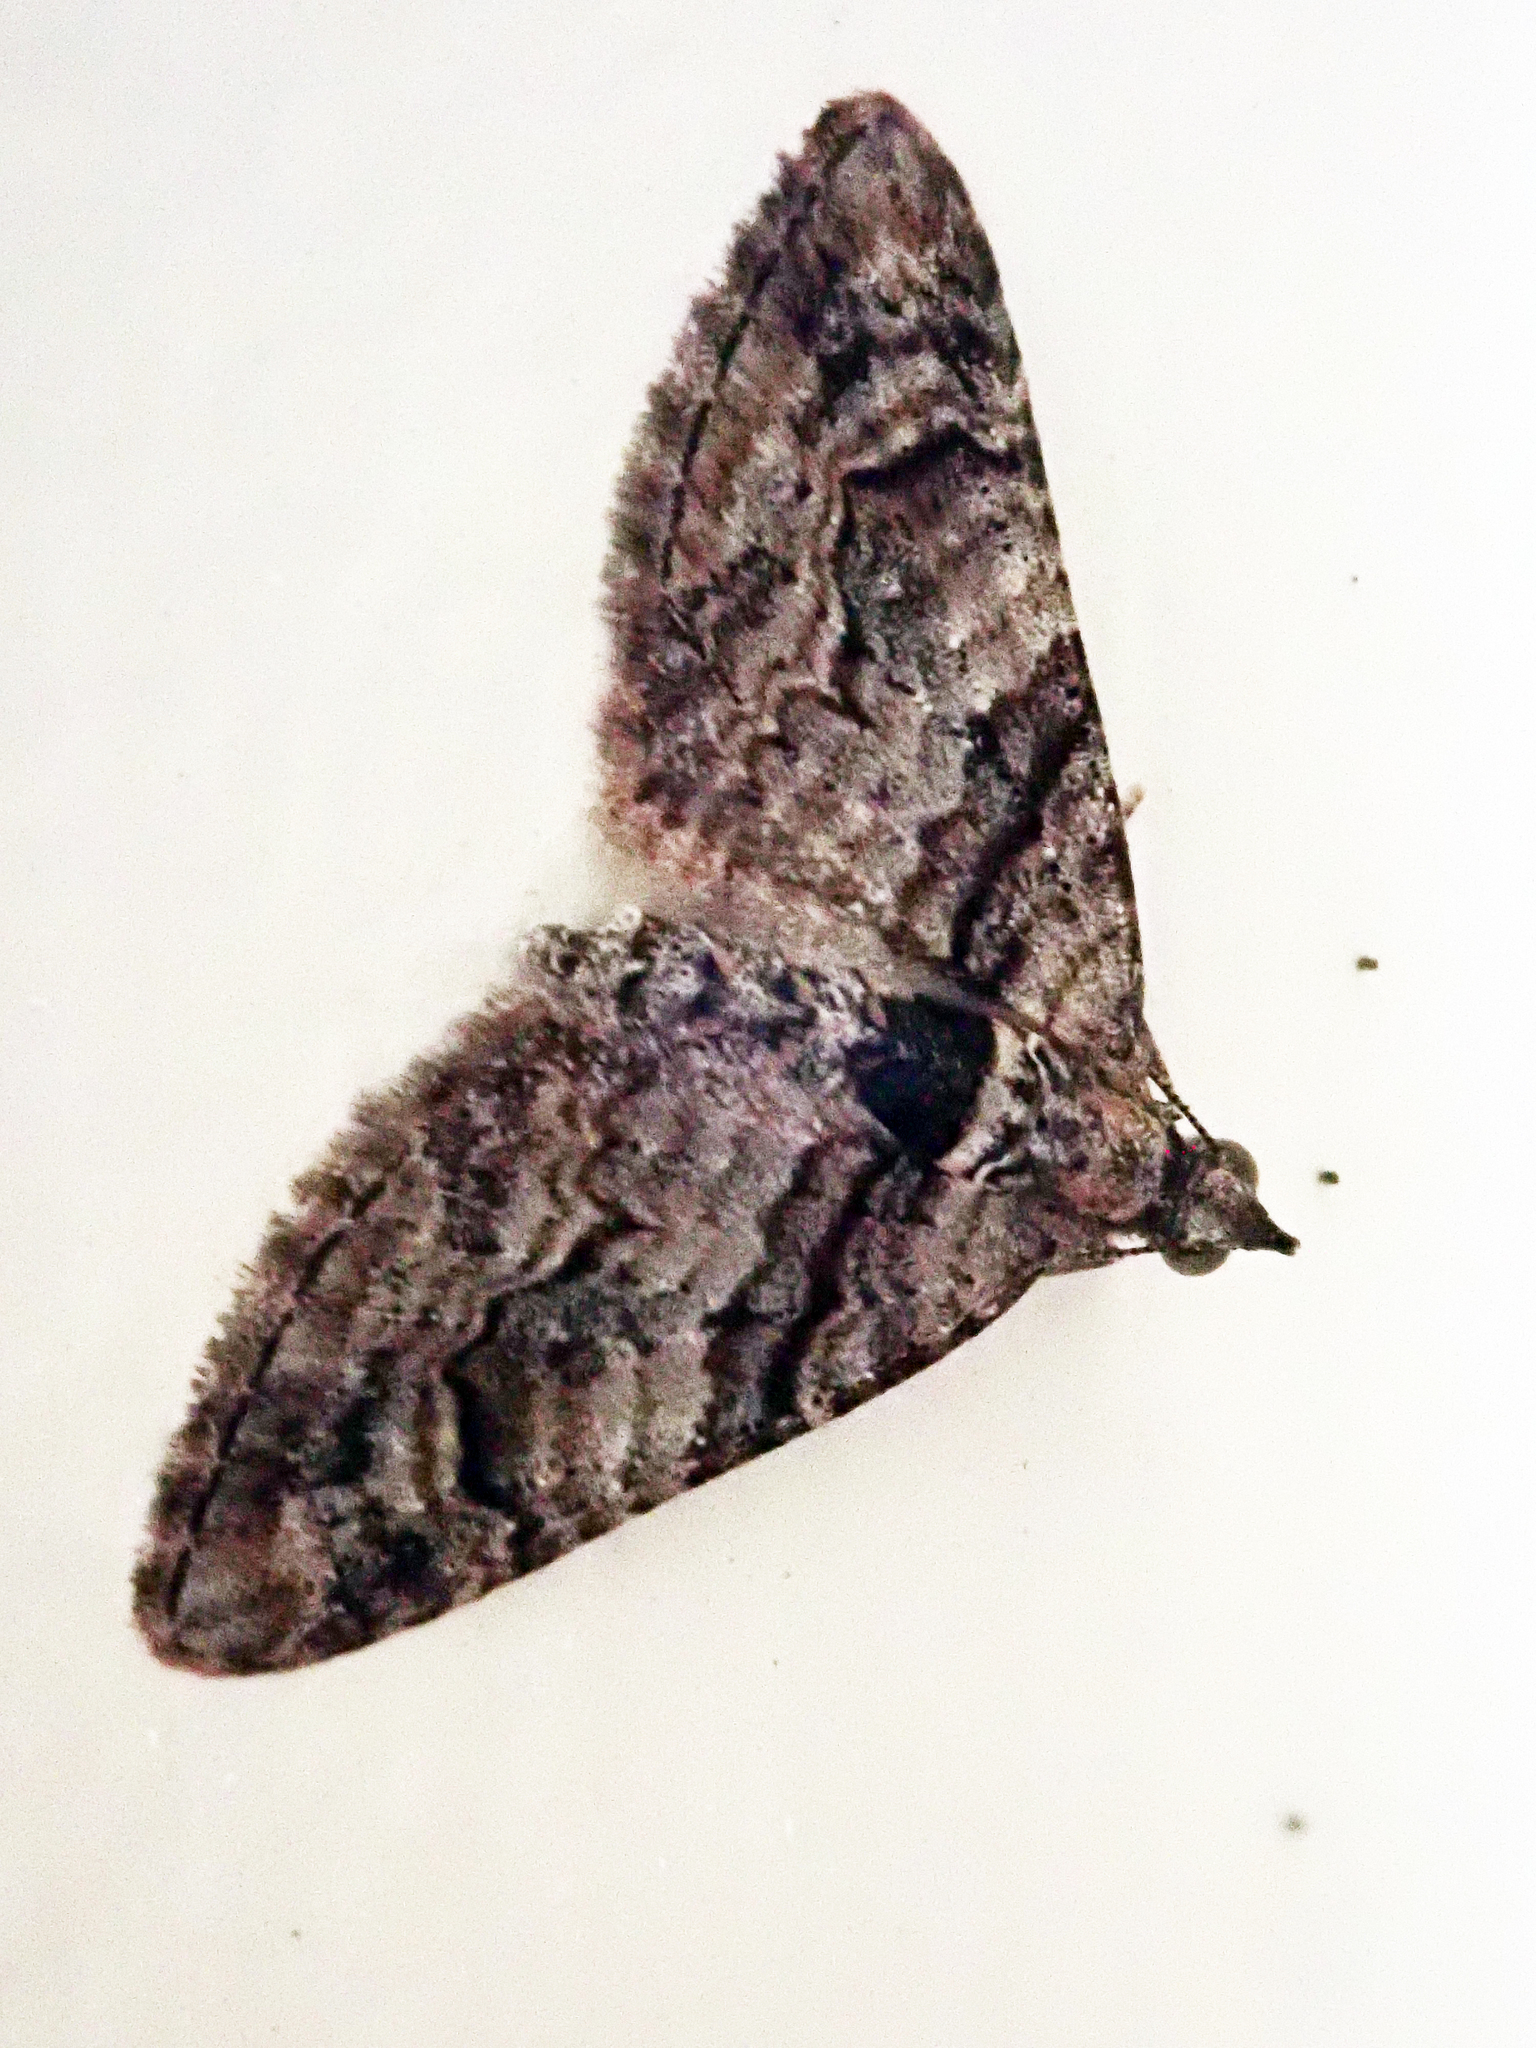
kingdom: Animalia
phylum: Arthropoda
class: Insecta
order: Lepidoptera
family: Geometridae
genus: Phrissogonus
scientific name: Phrissogonus laticostata
